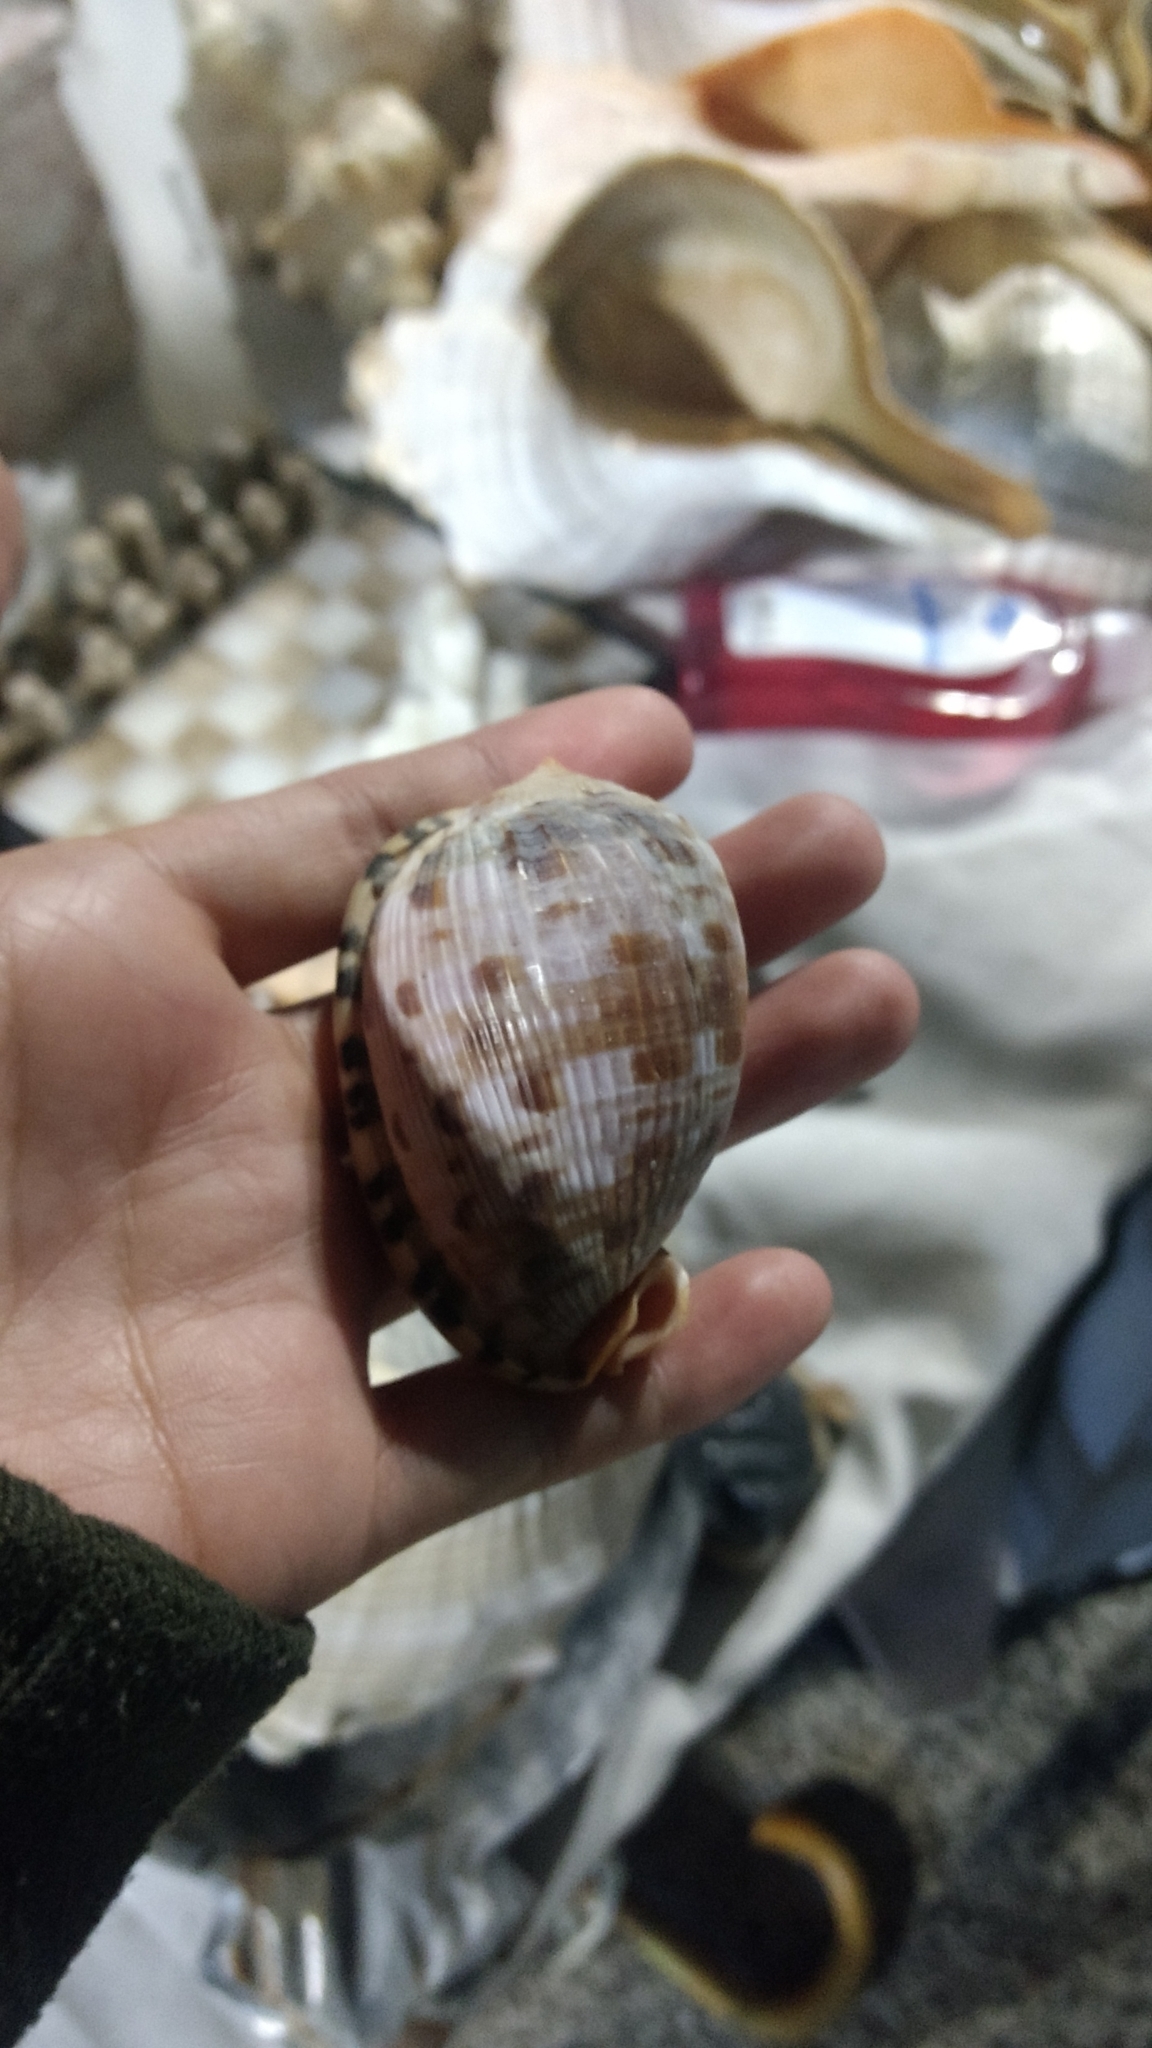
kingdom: Animalia
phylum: Mollusca
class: Gastropoda
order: Littorinimorpha
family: Cassidae
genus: Cypraecassis
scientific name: Cypraecassis testiculus
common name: Reticulate cowrie-helmet
